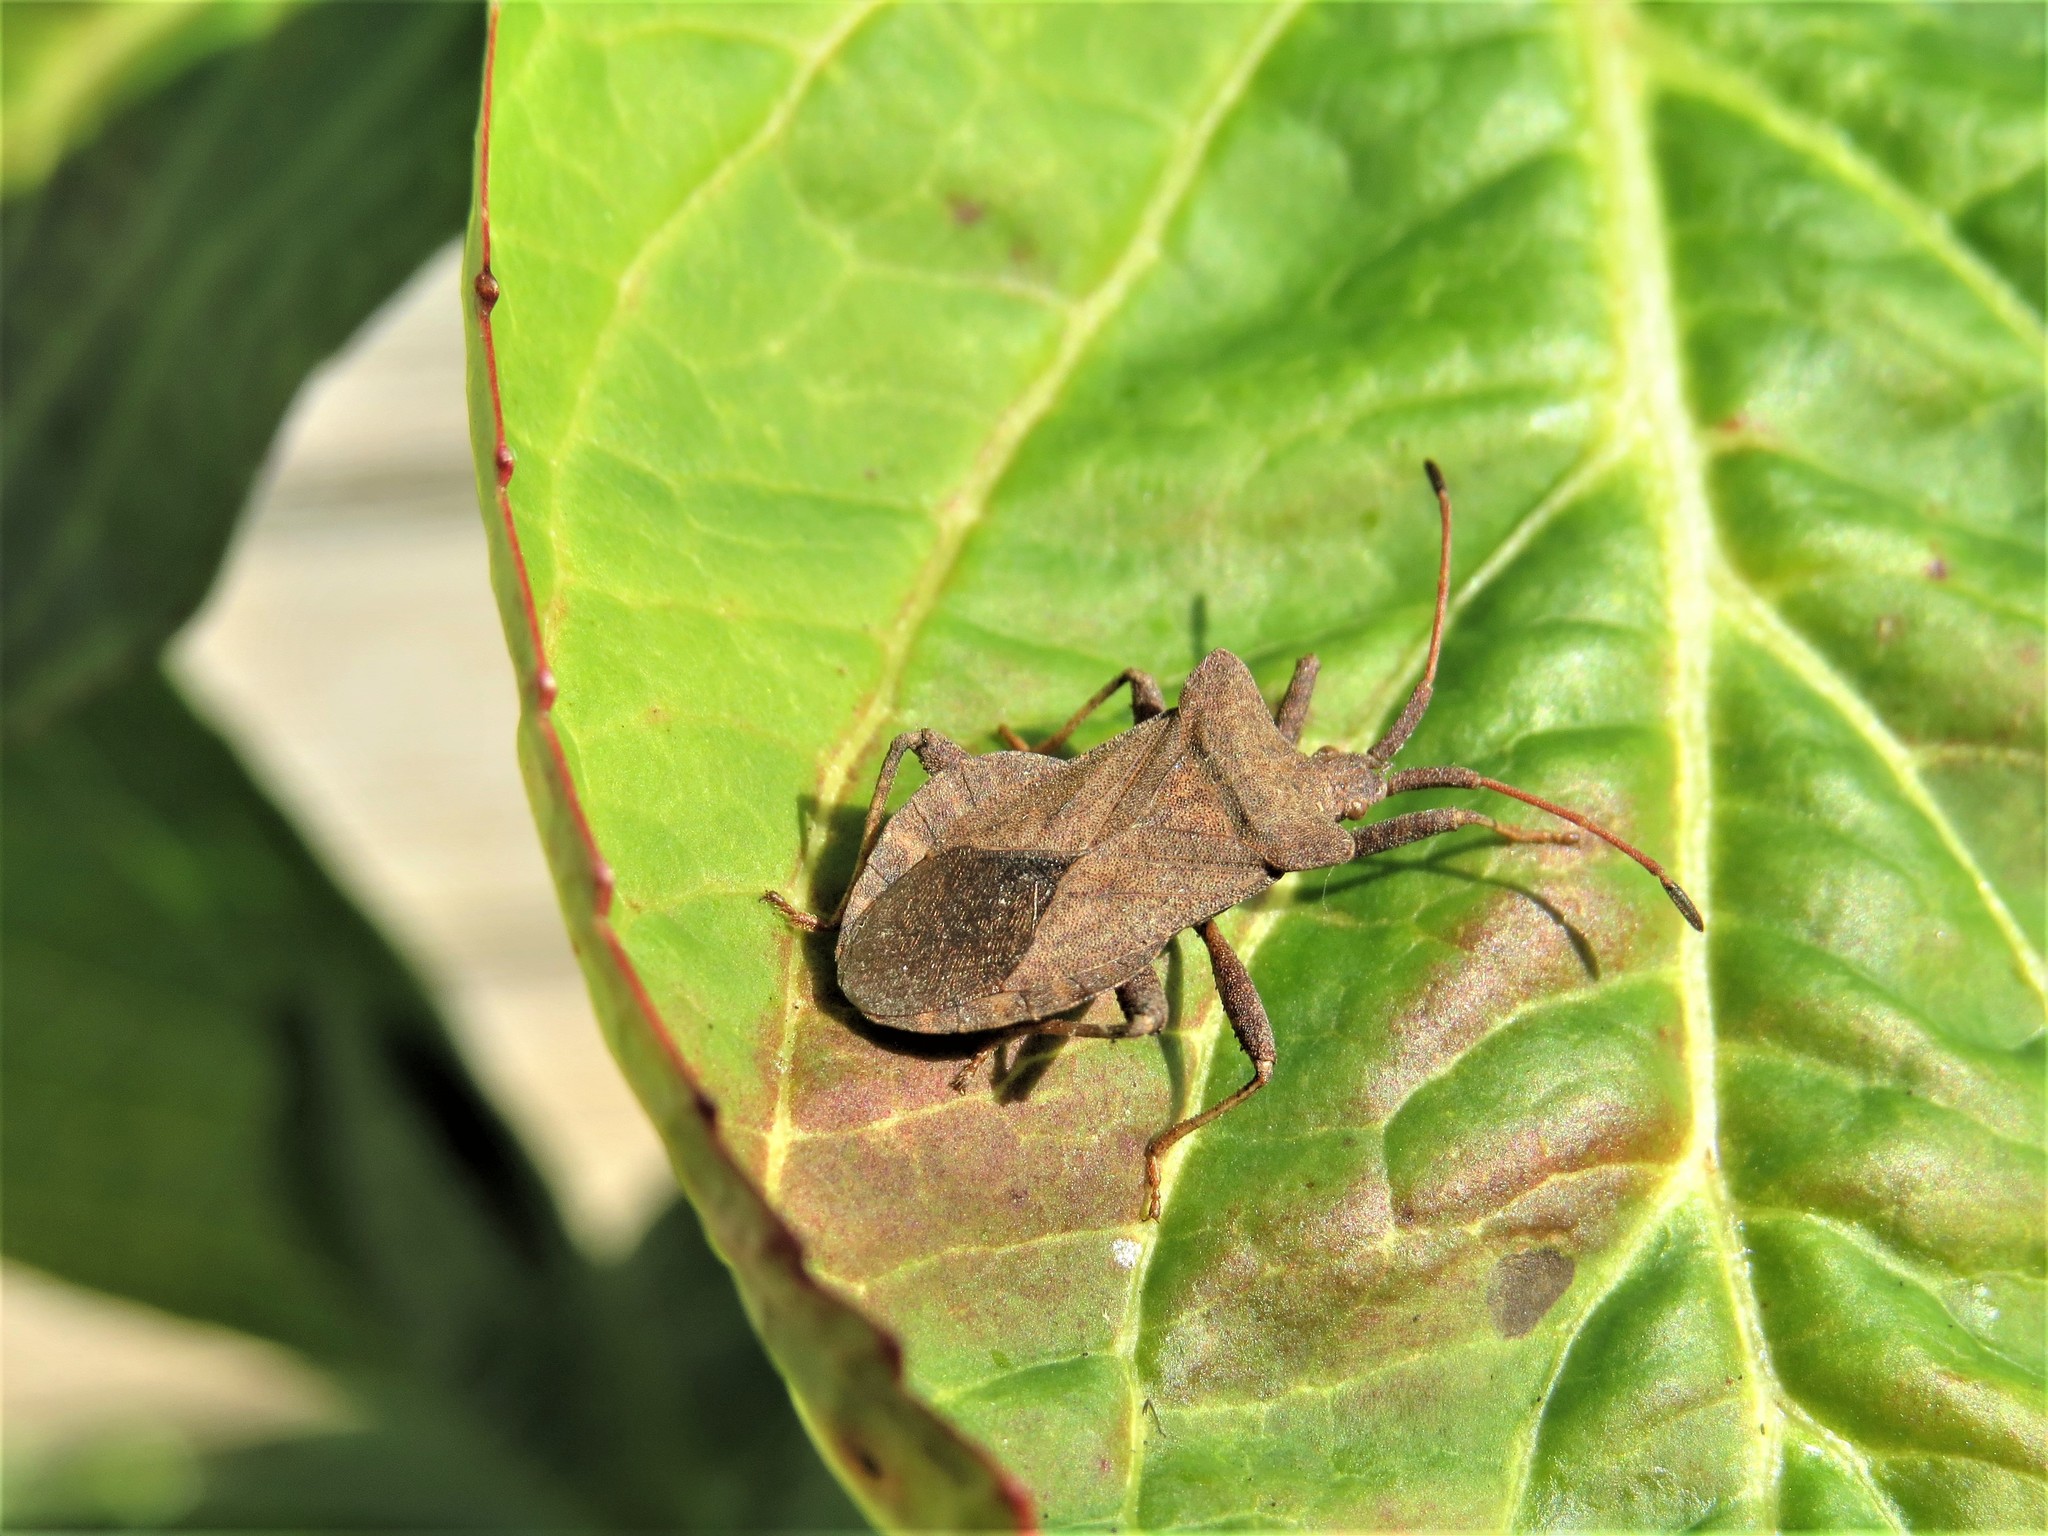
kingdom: Animalia
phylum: Arthropoda
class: Insecta
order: Hemiptera
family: Coreidae
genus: Coreus
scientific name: Coreus marginatus
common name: Dock bug
